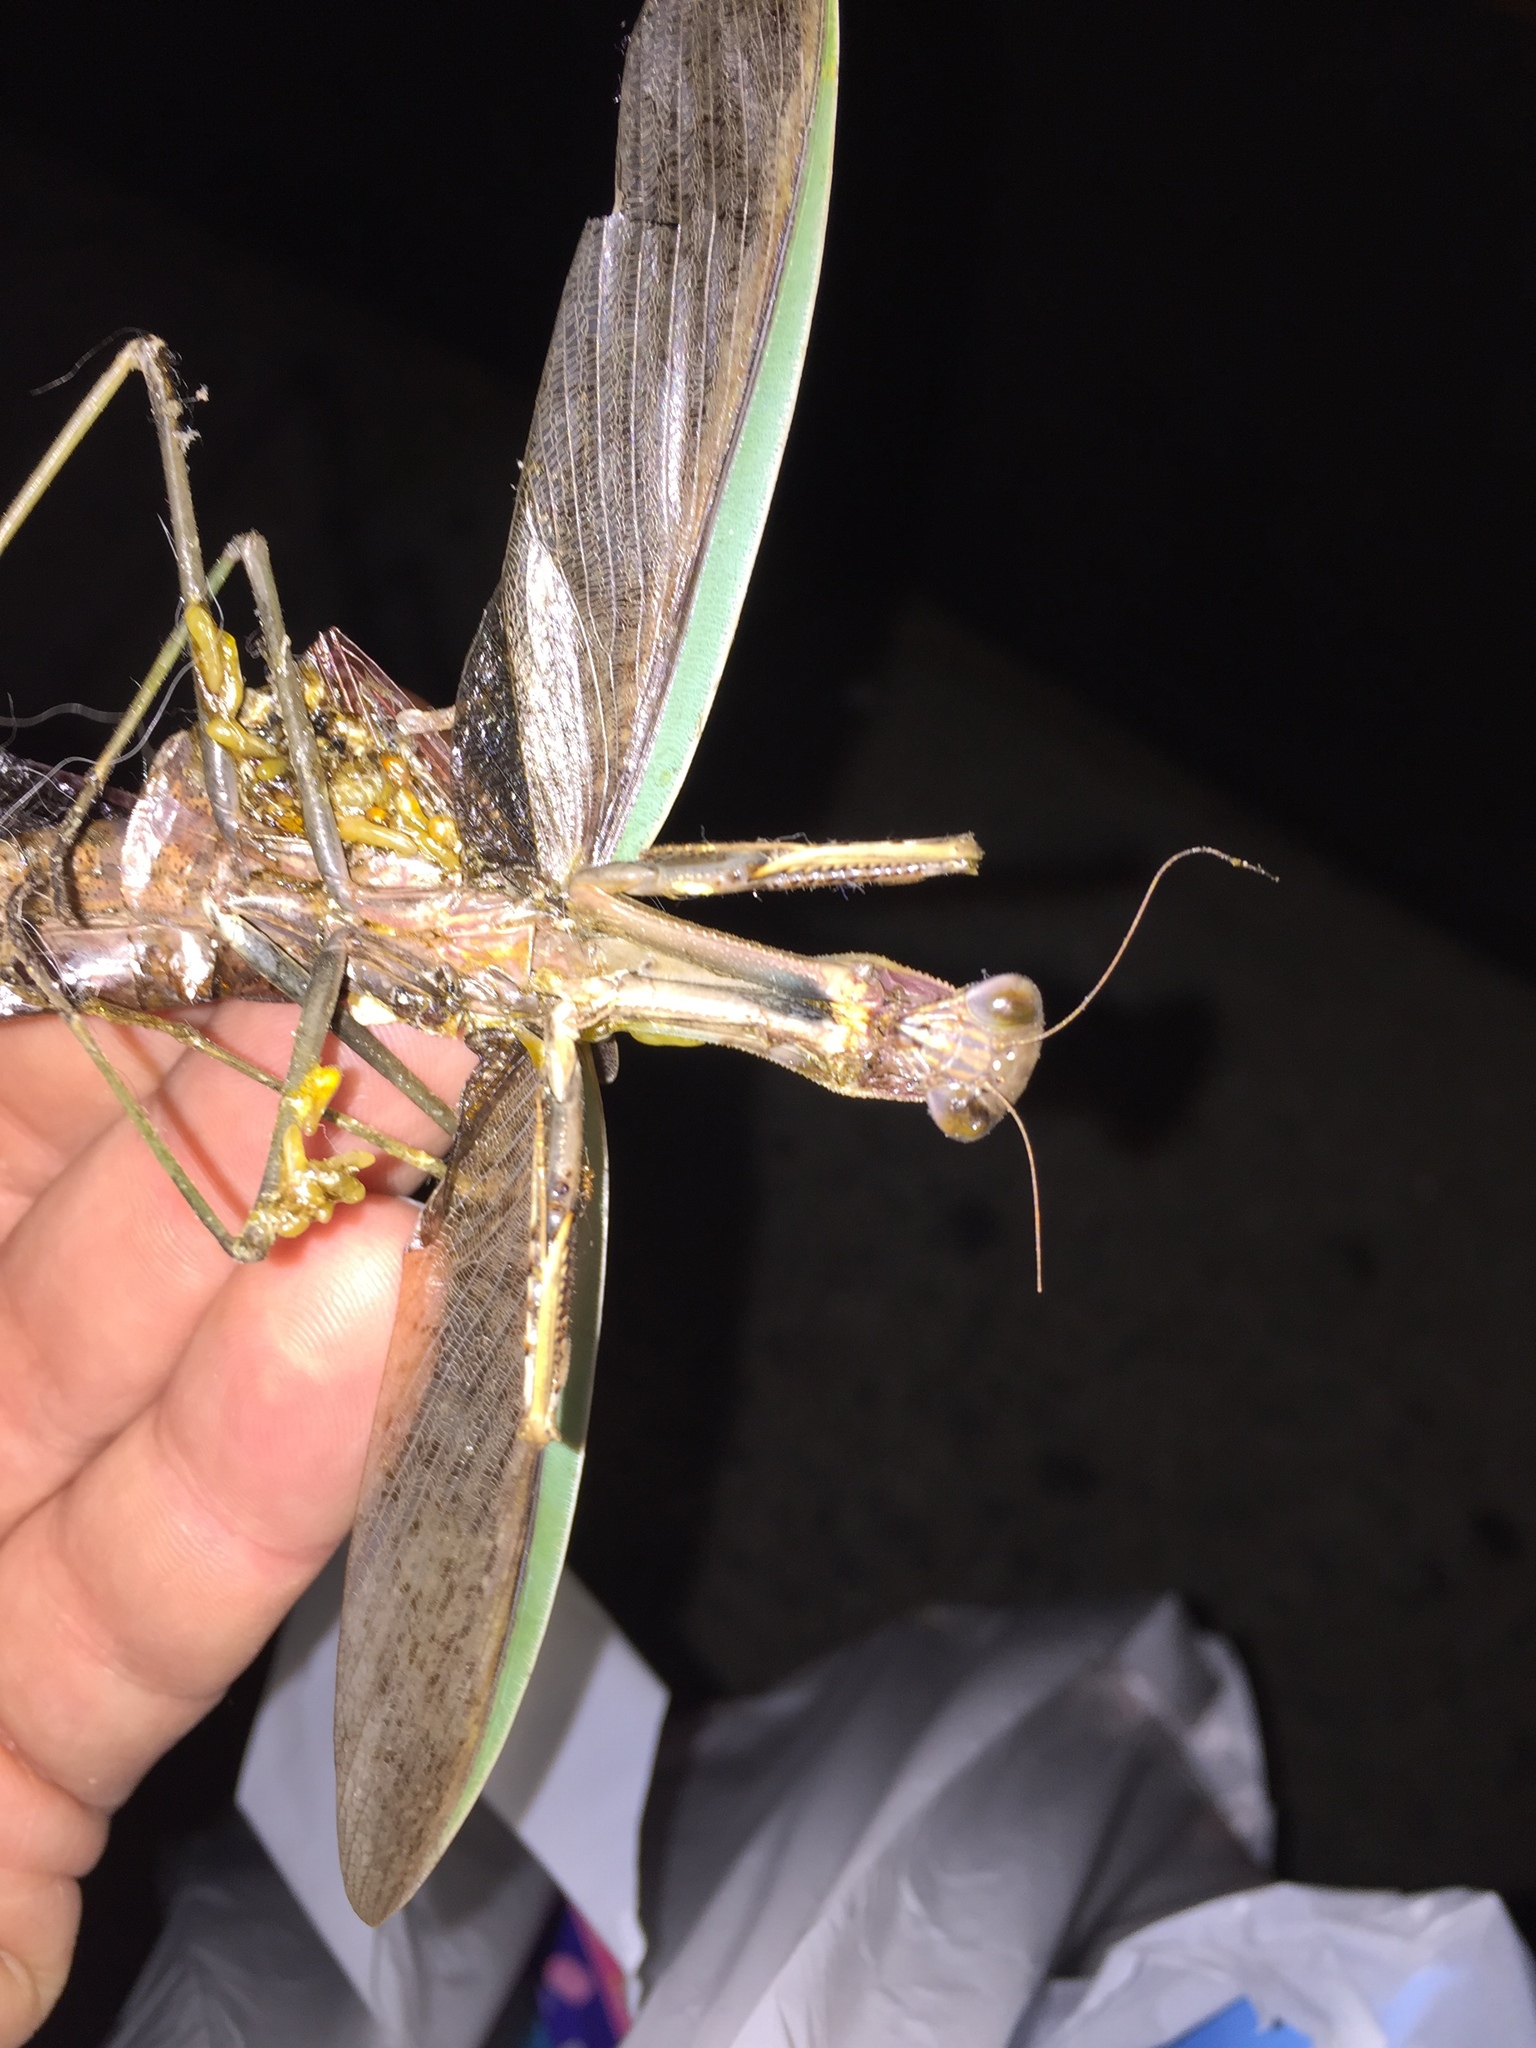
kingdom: Animalia
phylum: Arthropoda
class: Insecta
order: Mantodea
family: Mantidae
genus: Tenodera
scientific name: Tenodera sinensis
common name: Chinese mantis
